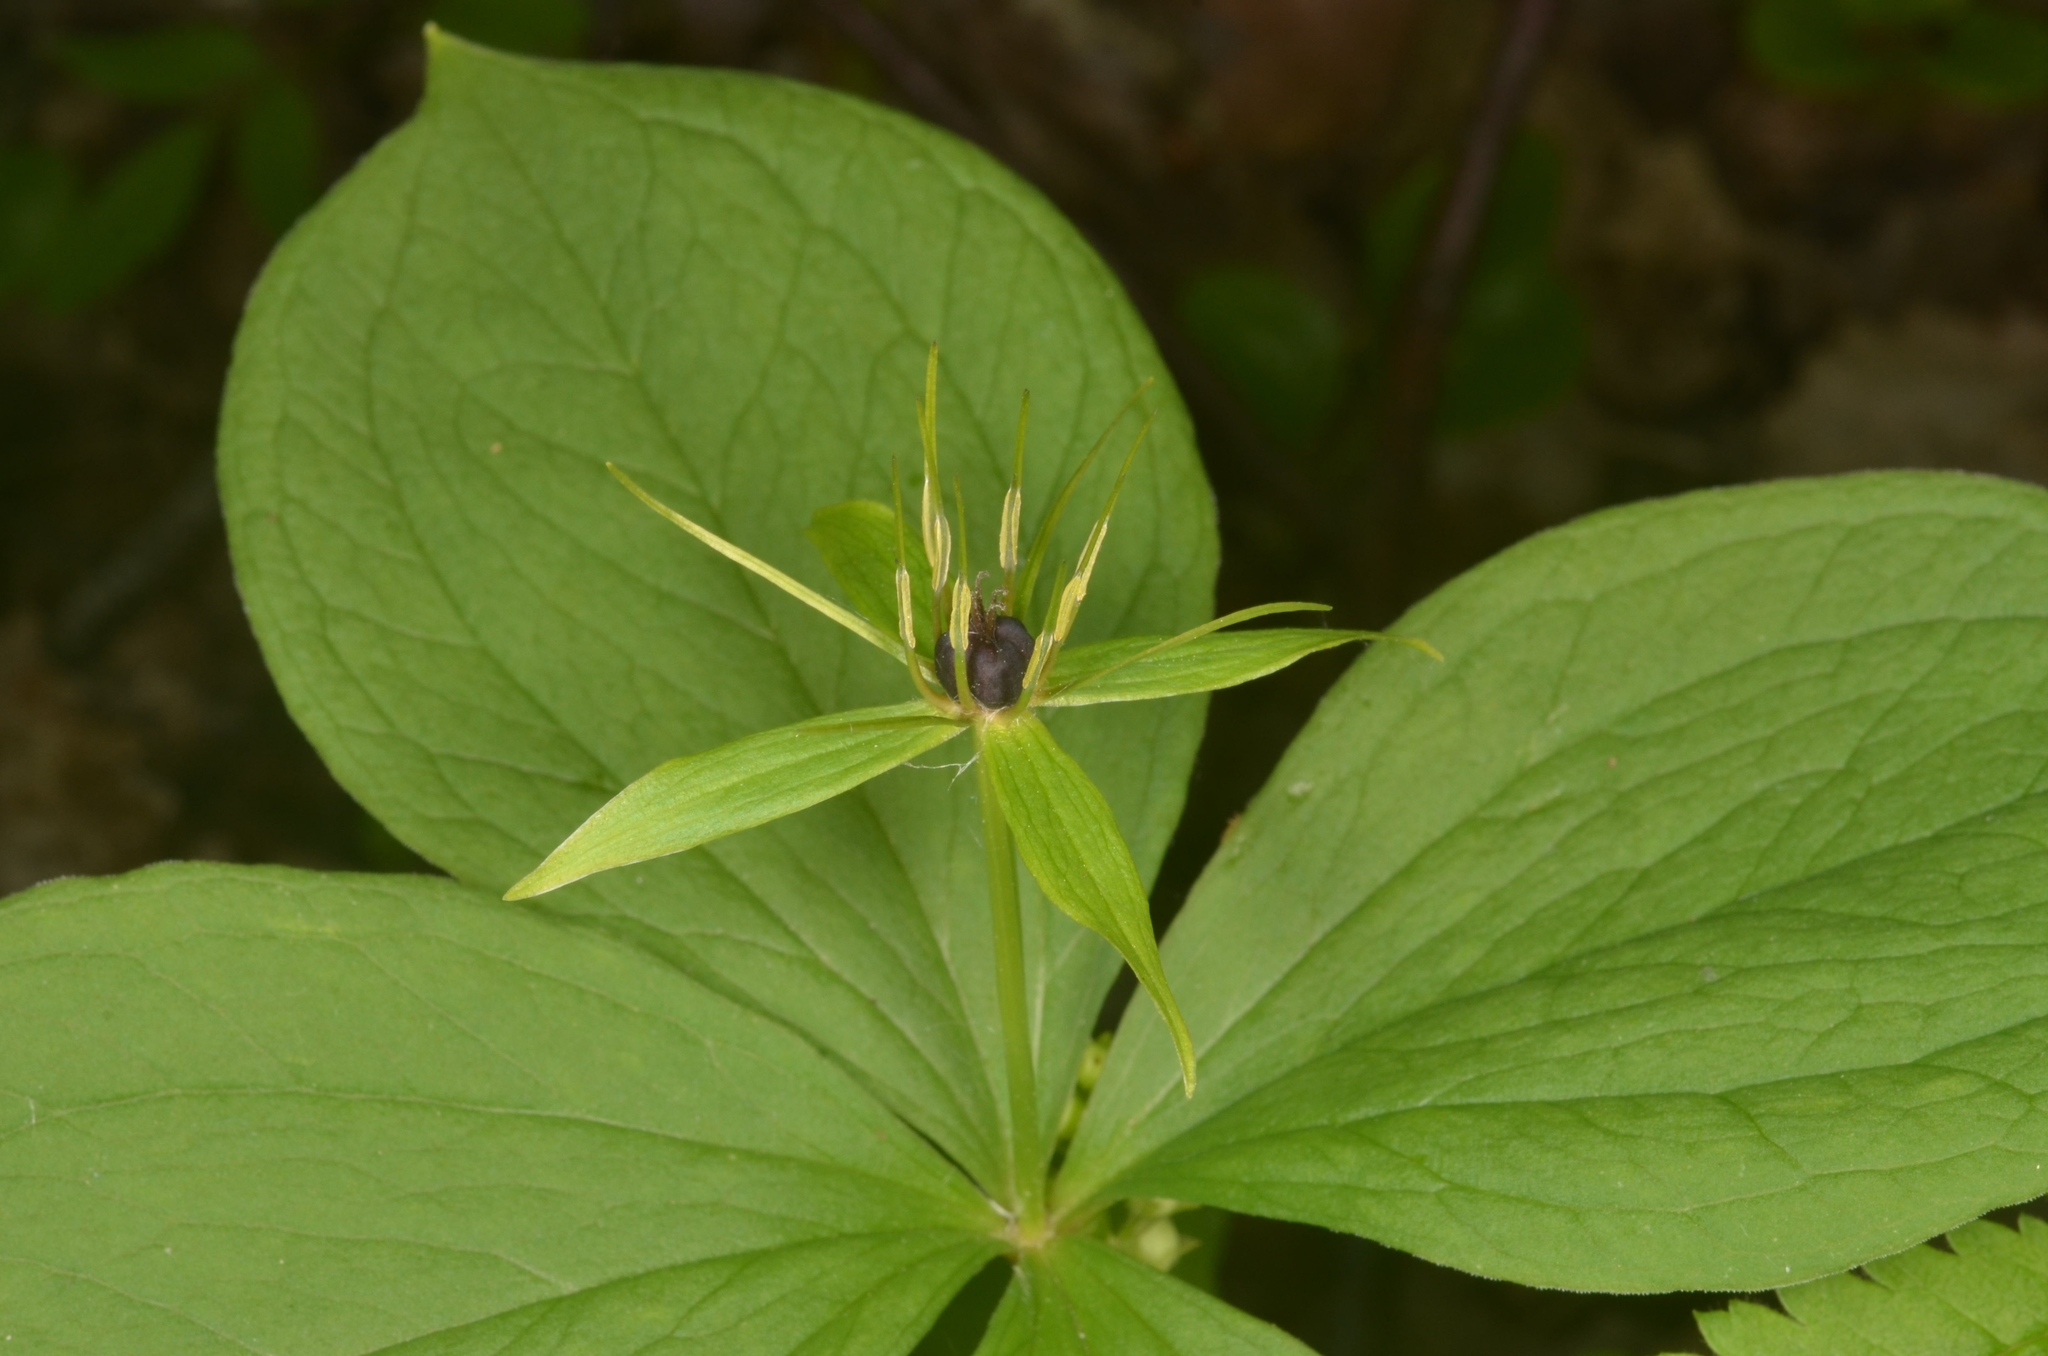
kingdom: Plantae
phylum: Tracheophyta
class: Liliopsida
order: Liliales
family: Melanthiaceae
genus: Paris
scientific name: Paris quadrifolia
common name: Herb-paris
